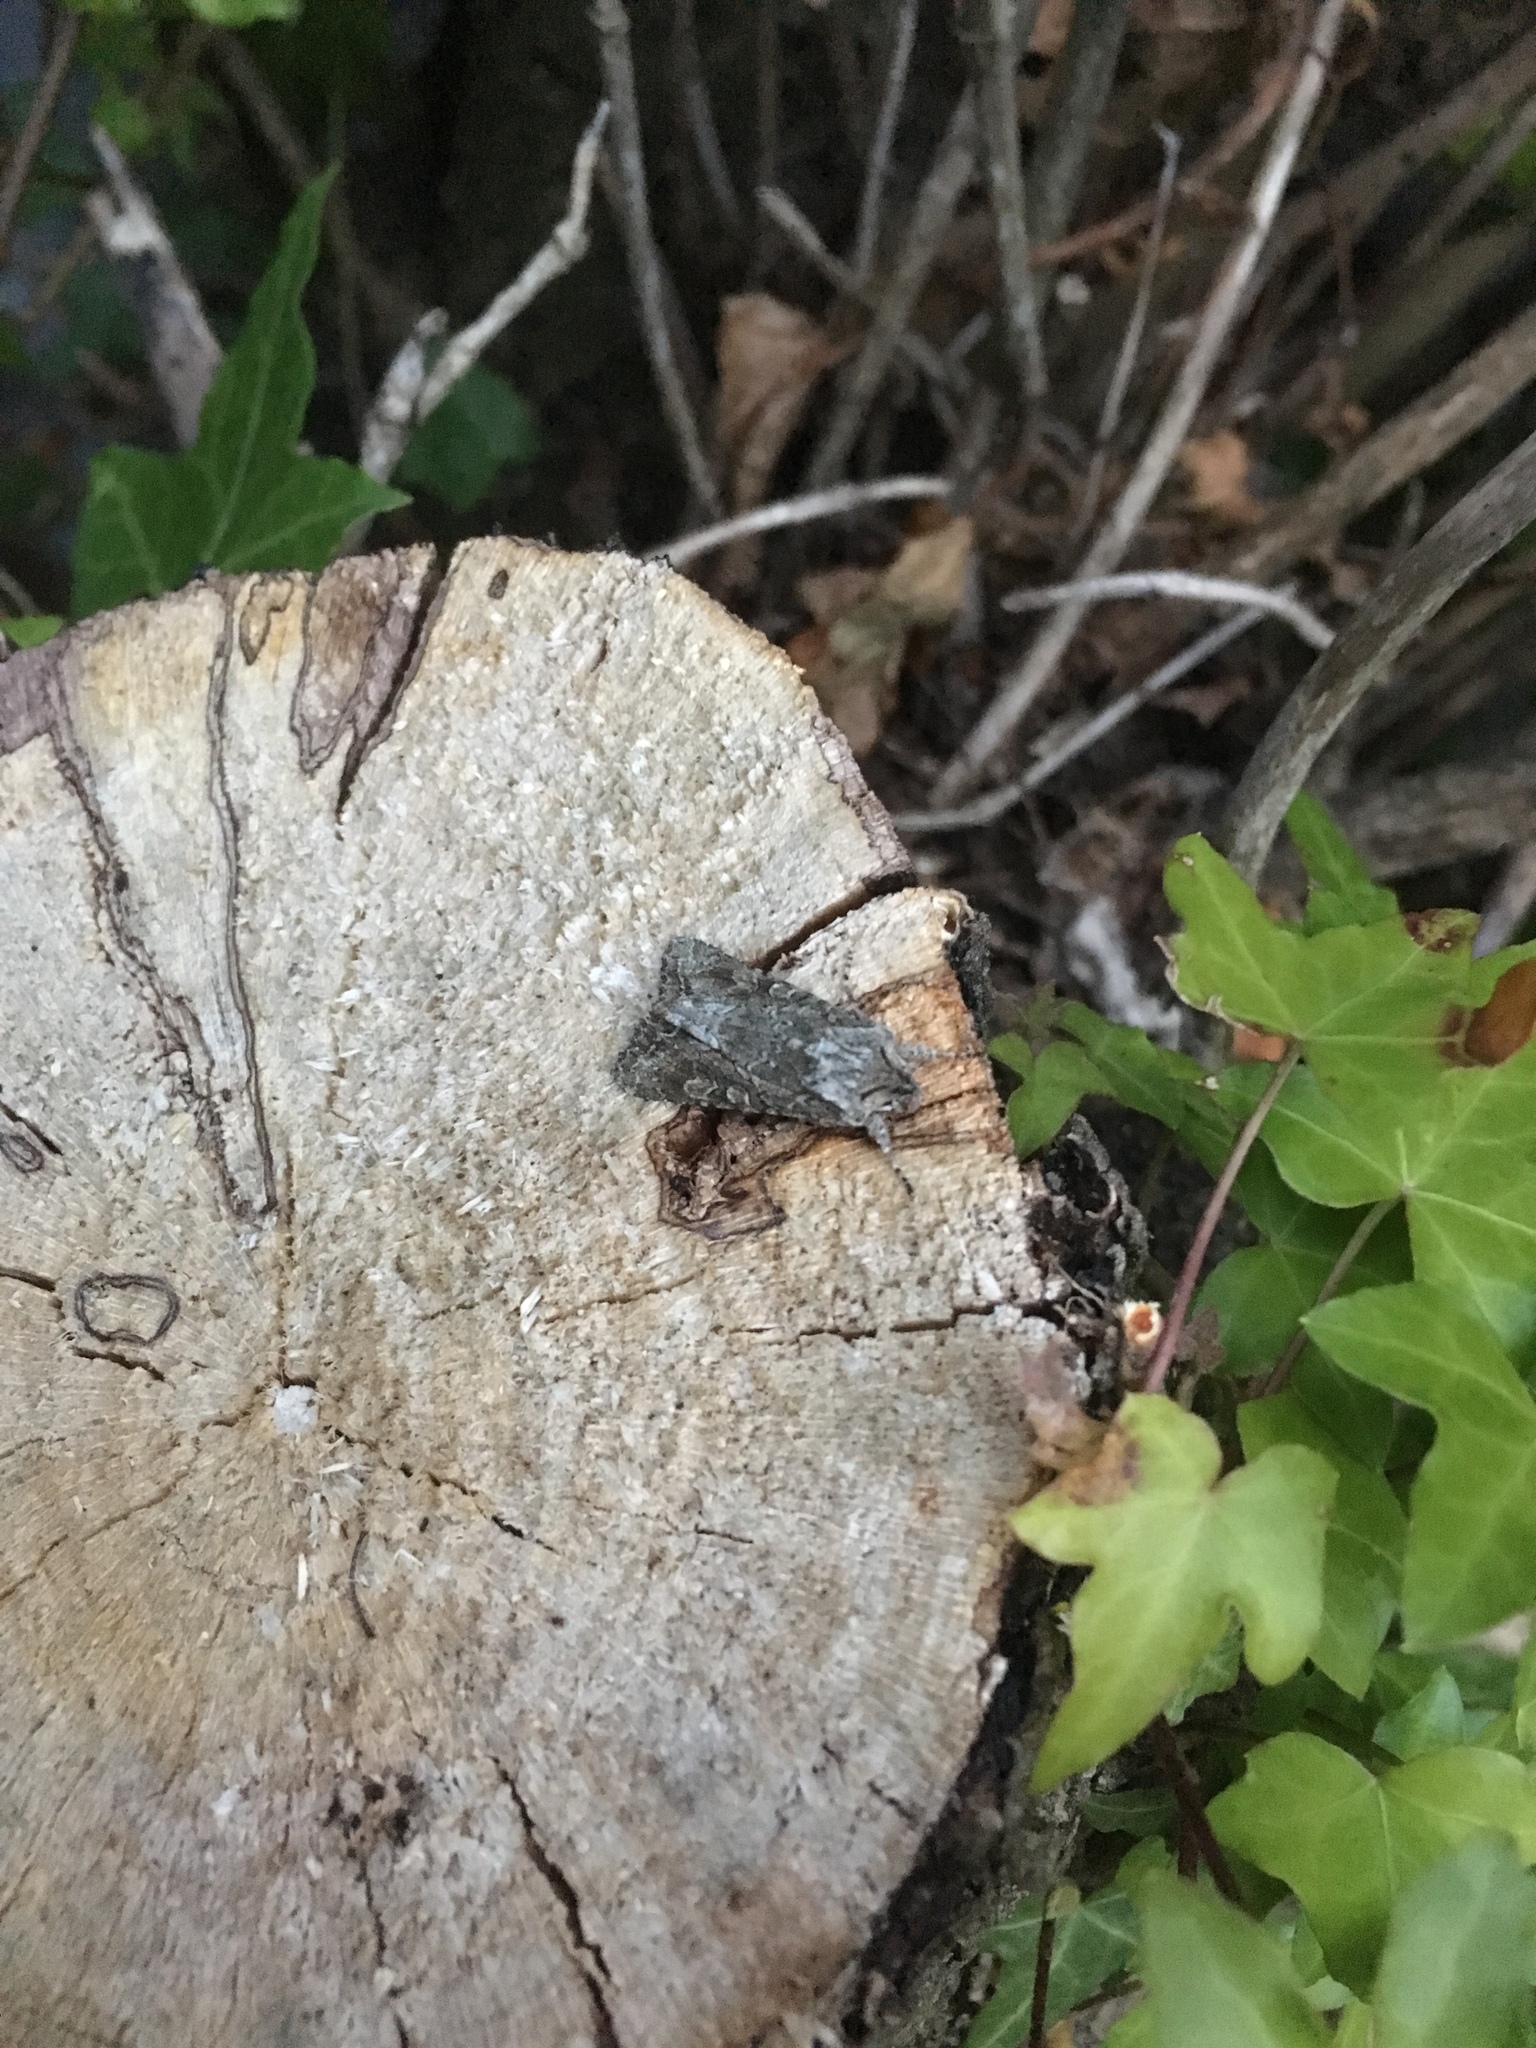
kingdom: Animalia
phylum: Arthropoda
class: Insecta
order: Lepidoptera
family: Noctuidae
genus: Ichneutica
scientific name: Ichneutica mutans
